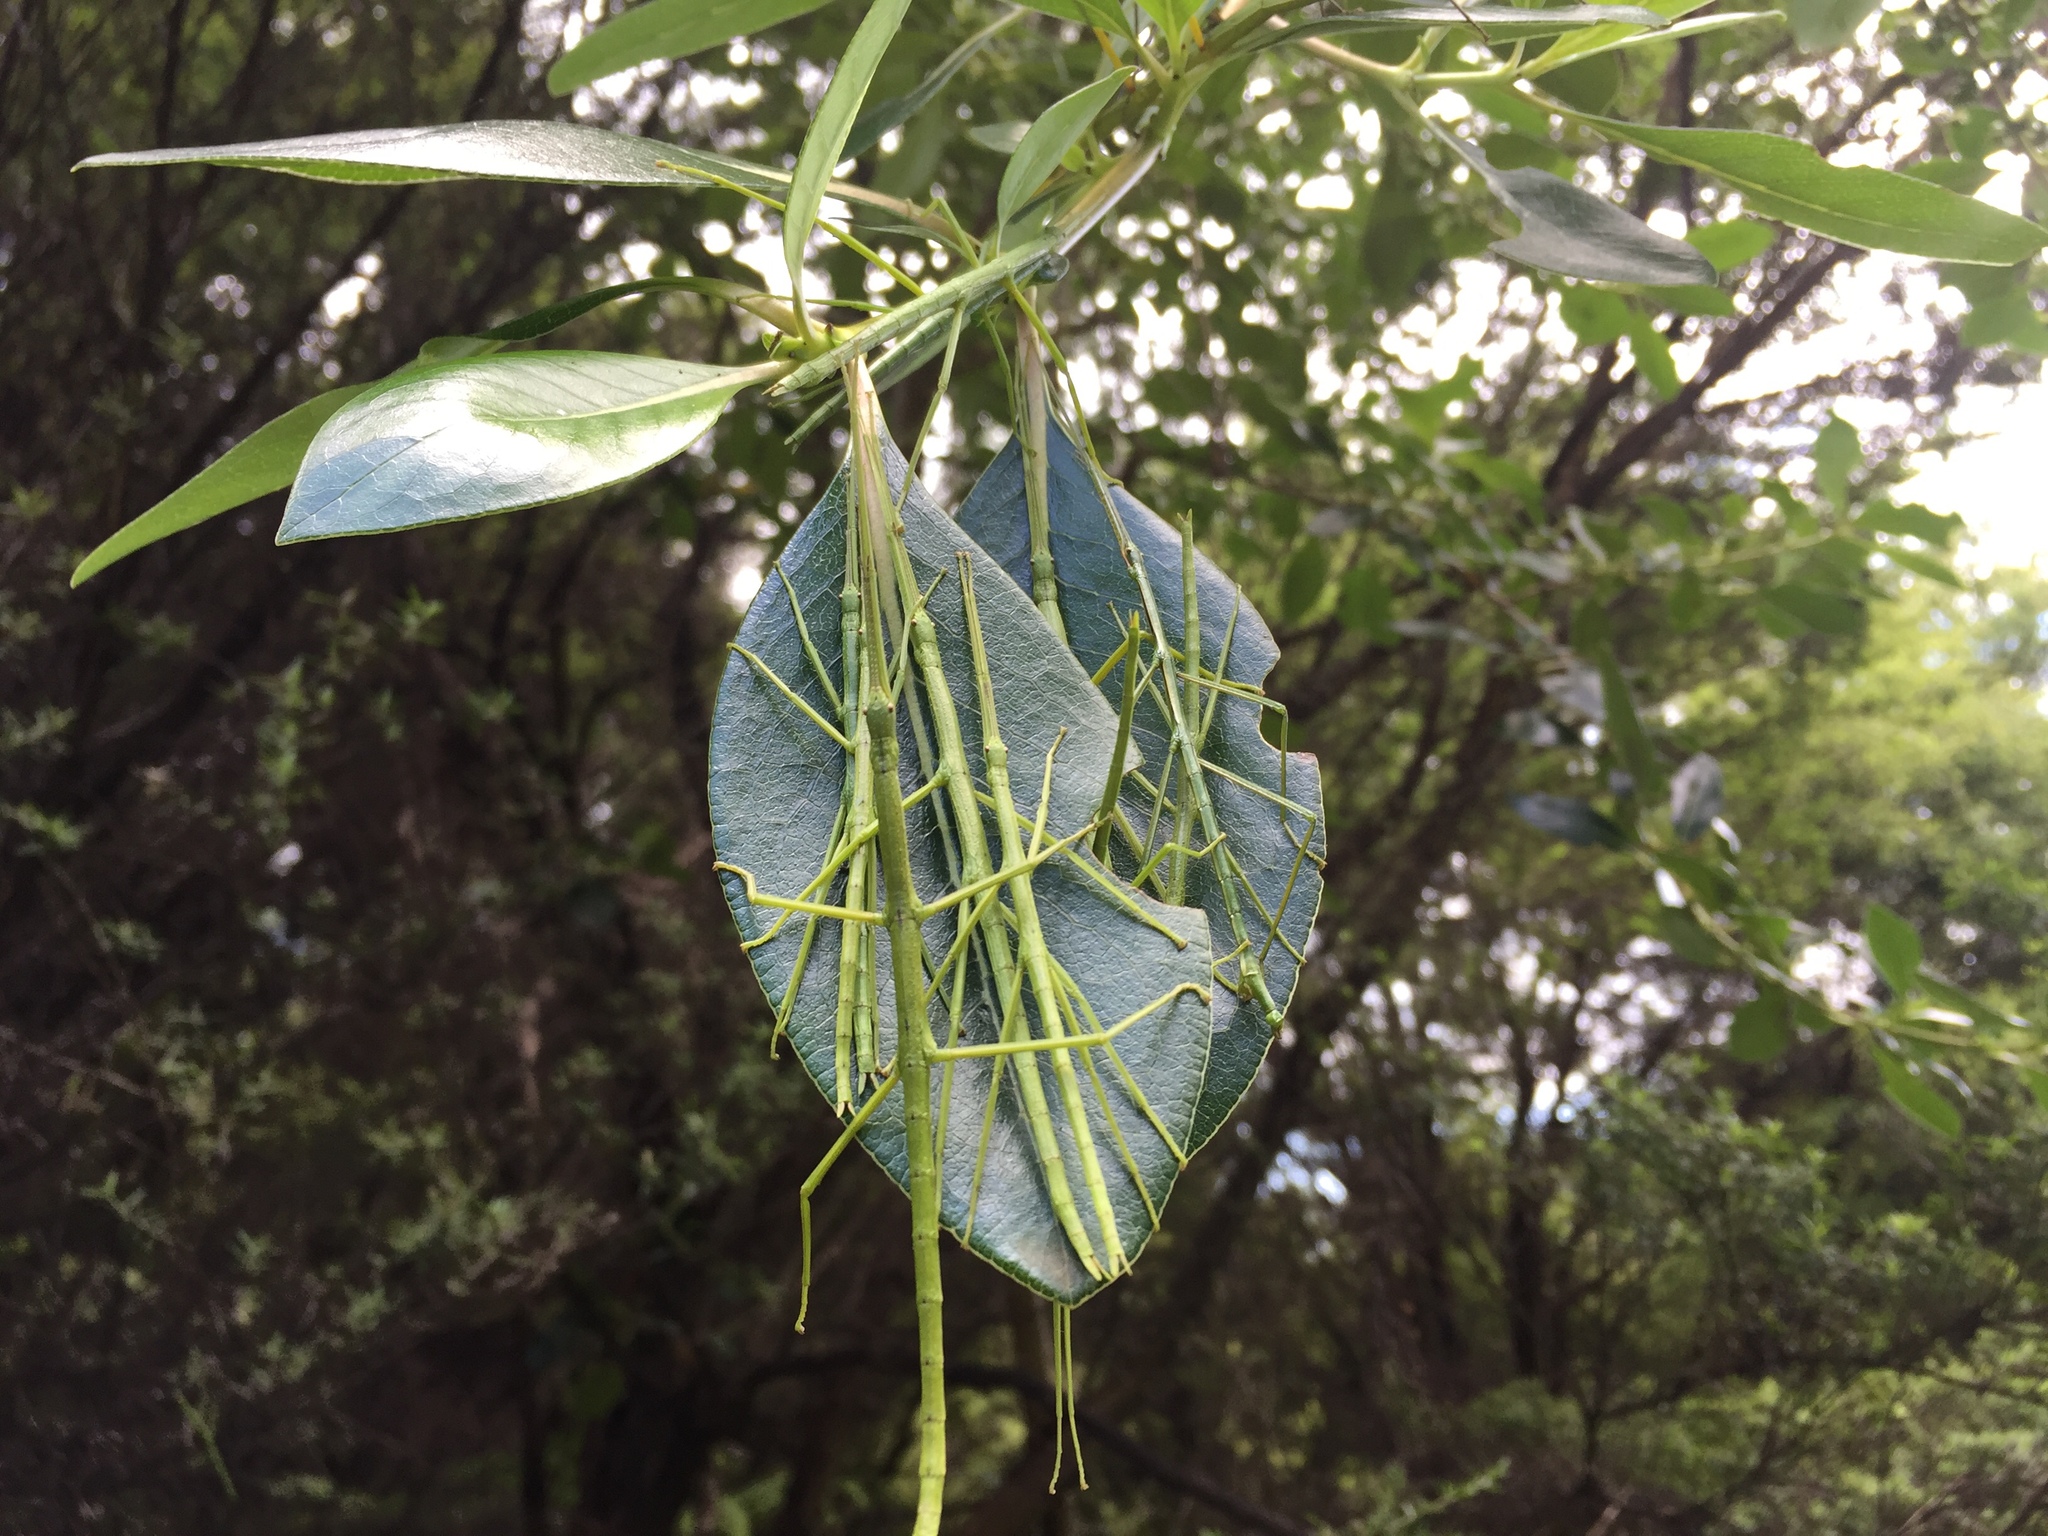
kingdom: Animalia
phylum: Arthropoda
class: Insecta
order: Phasmida
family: Phasmatidae
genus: Clitarchus
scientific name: Clitarchus hookeri
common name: Smooth stick insect
